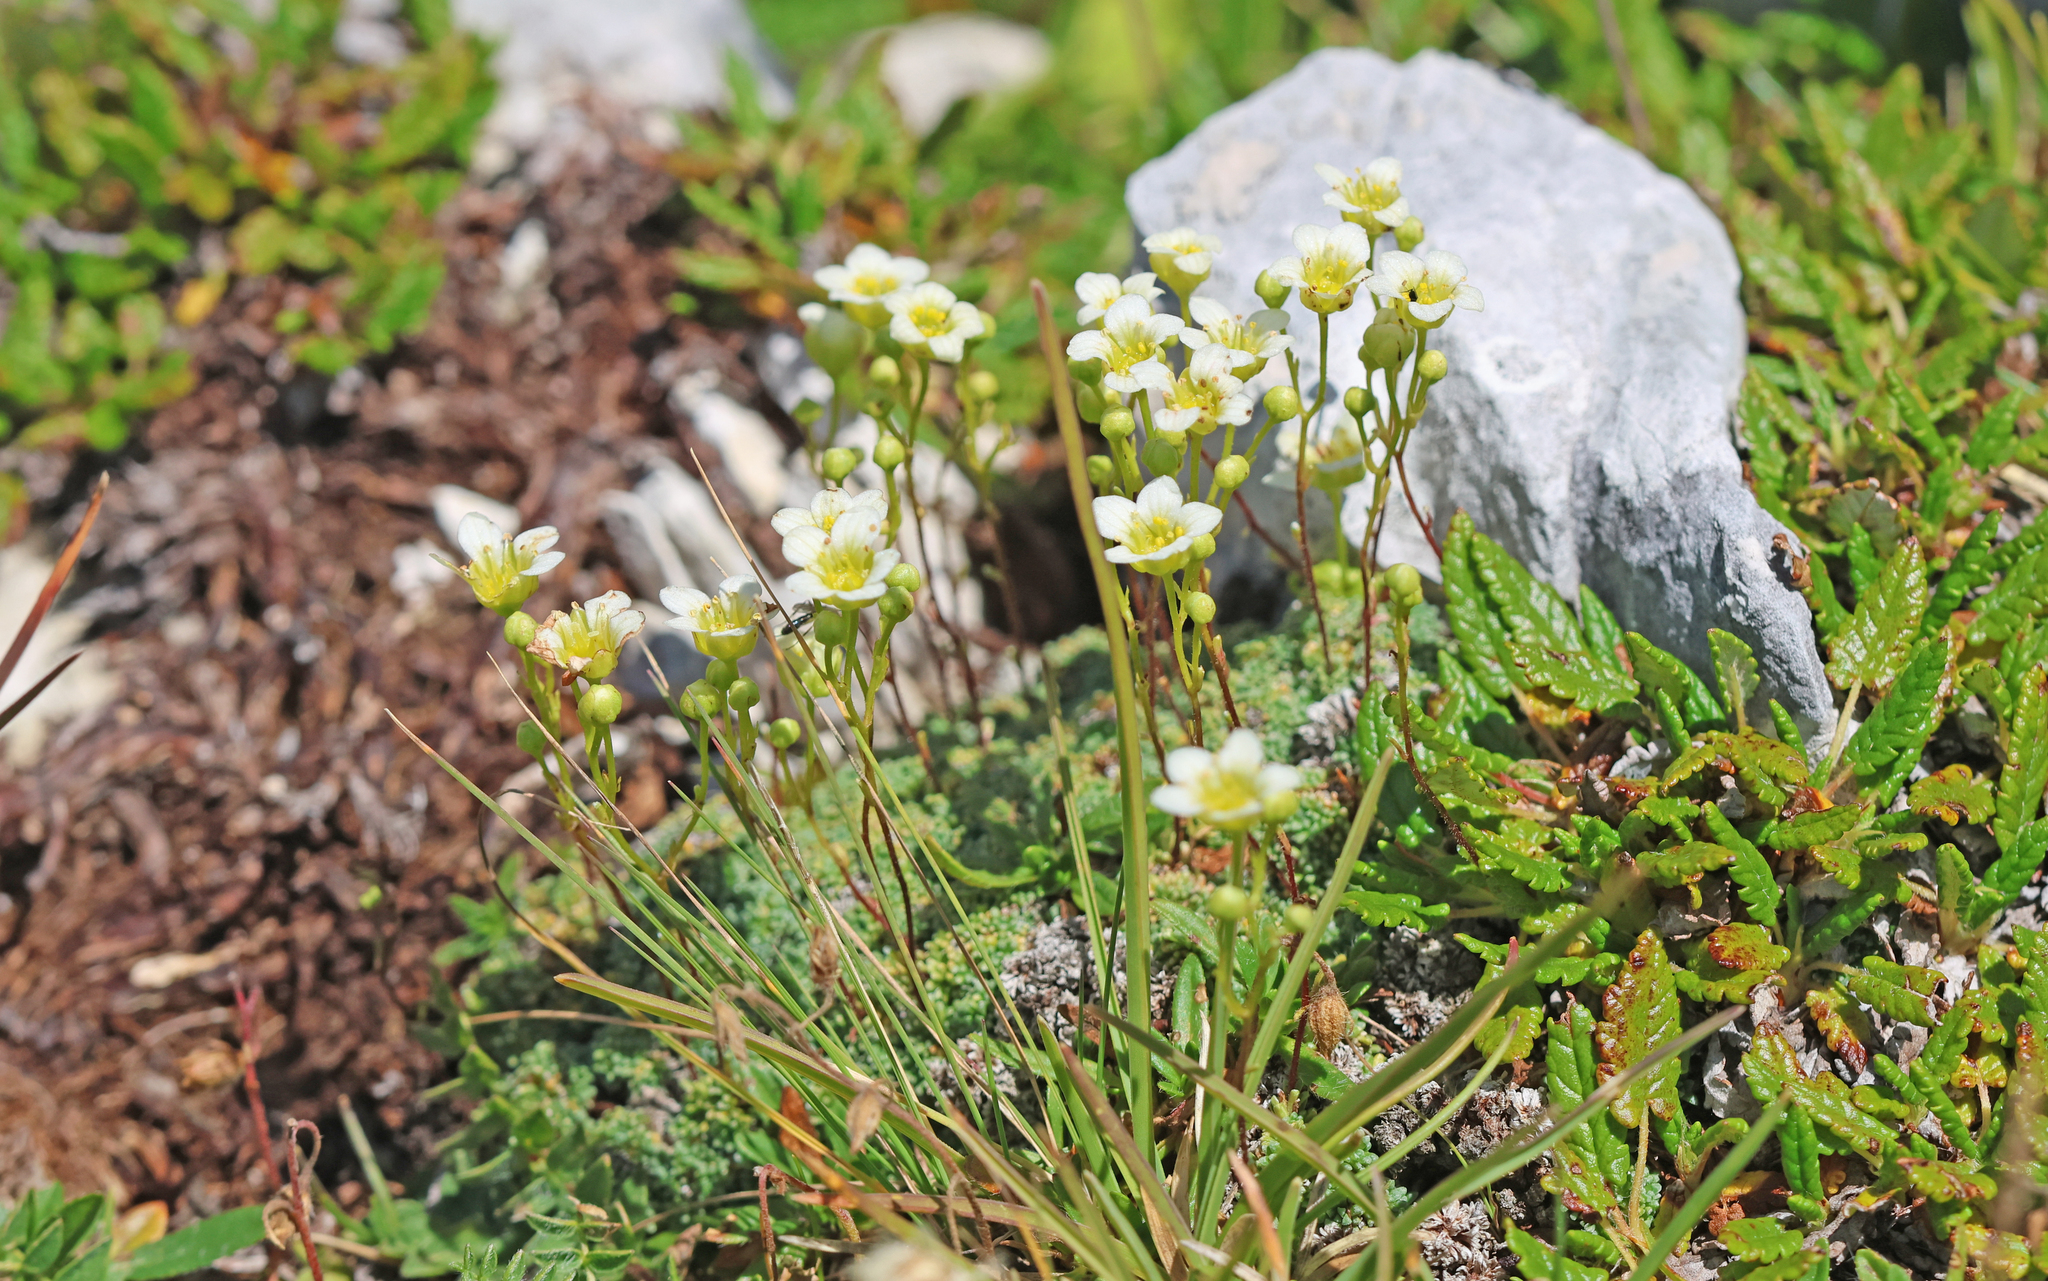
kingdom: Plantae
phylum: Tracheophyta
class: Magnoliopsida
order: Saxifragales
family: Saxifragaceae
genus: Saxifraga
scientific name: Saxifraga squarrosa
